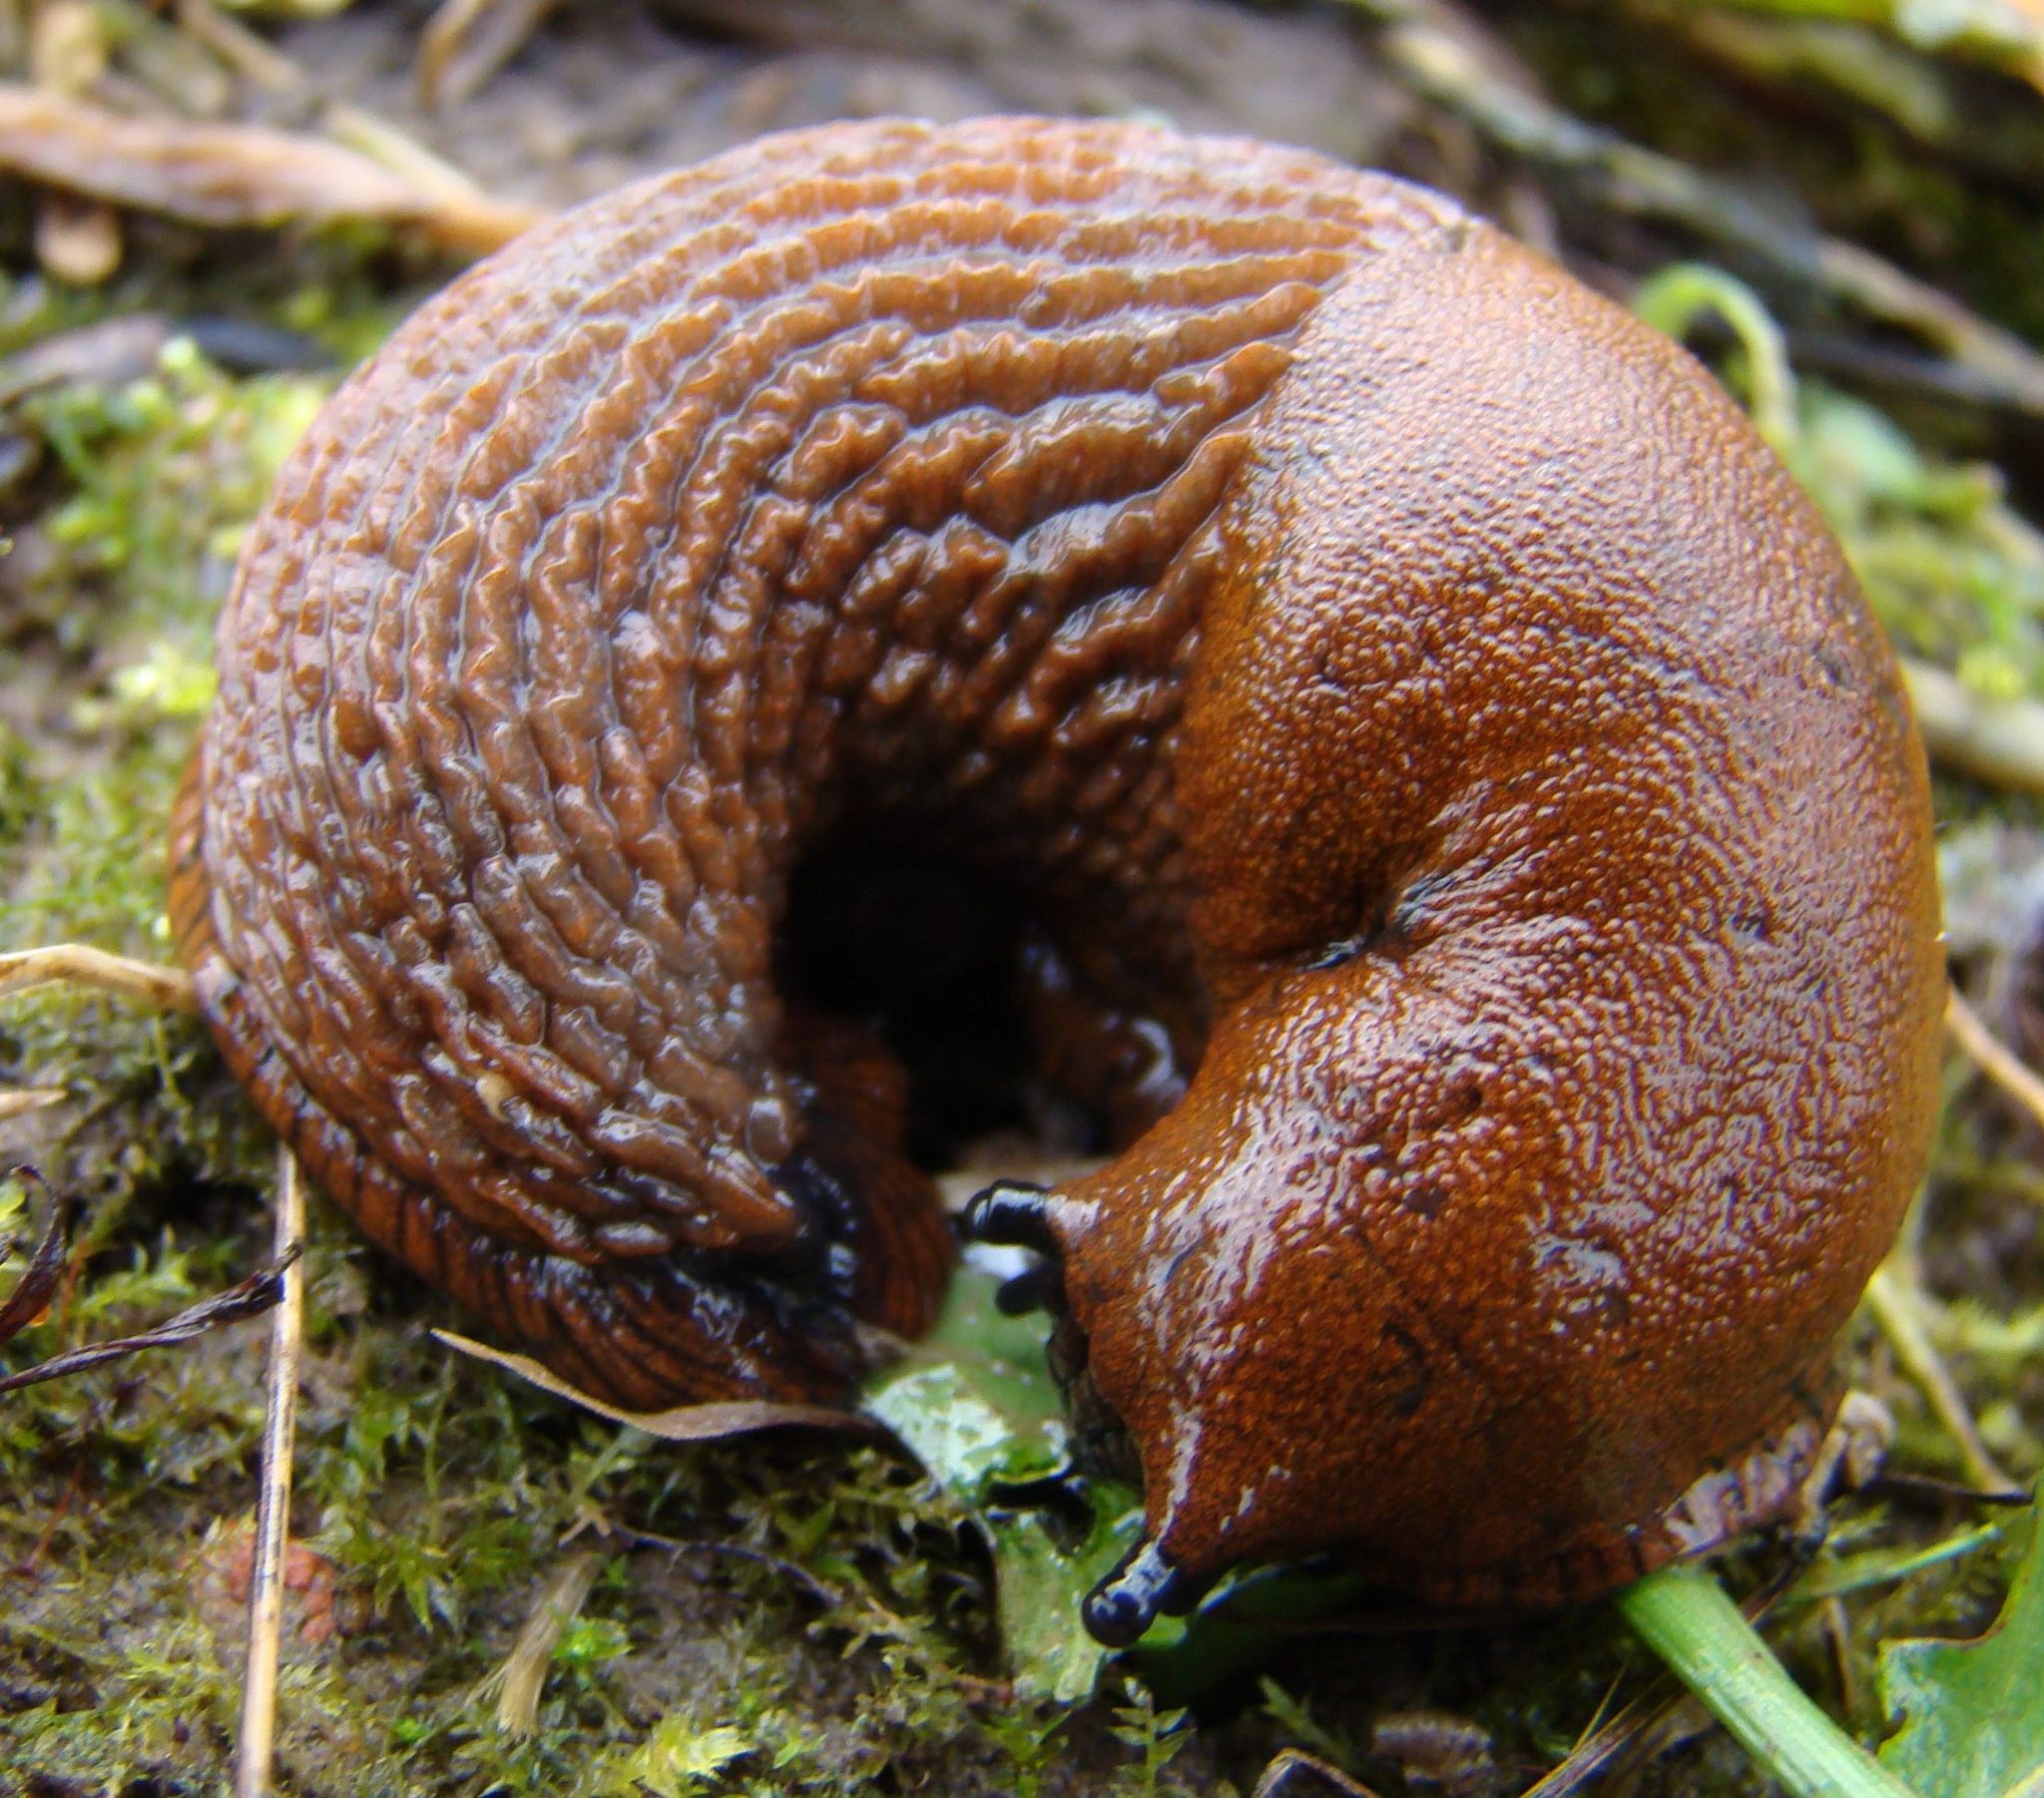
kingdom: Animalia
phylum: Mollusca
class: Gastropoda
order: Stylommatophora
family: Arionidae
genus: Arion
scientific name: Arion
